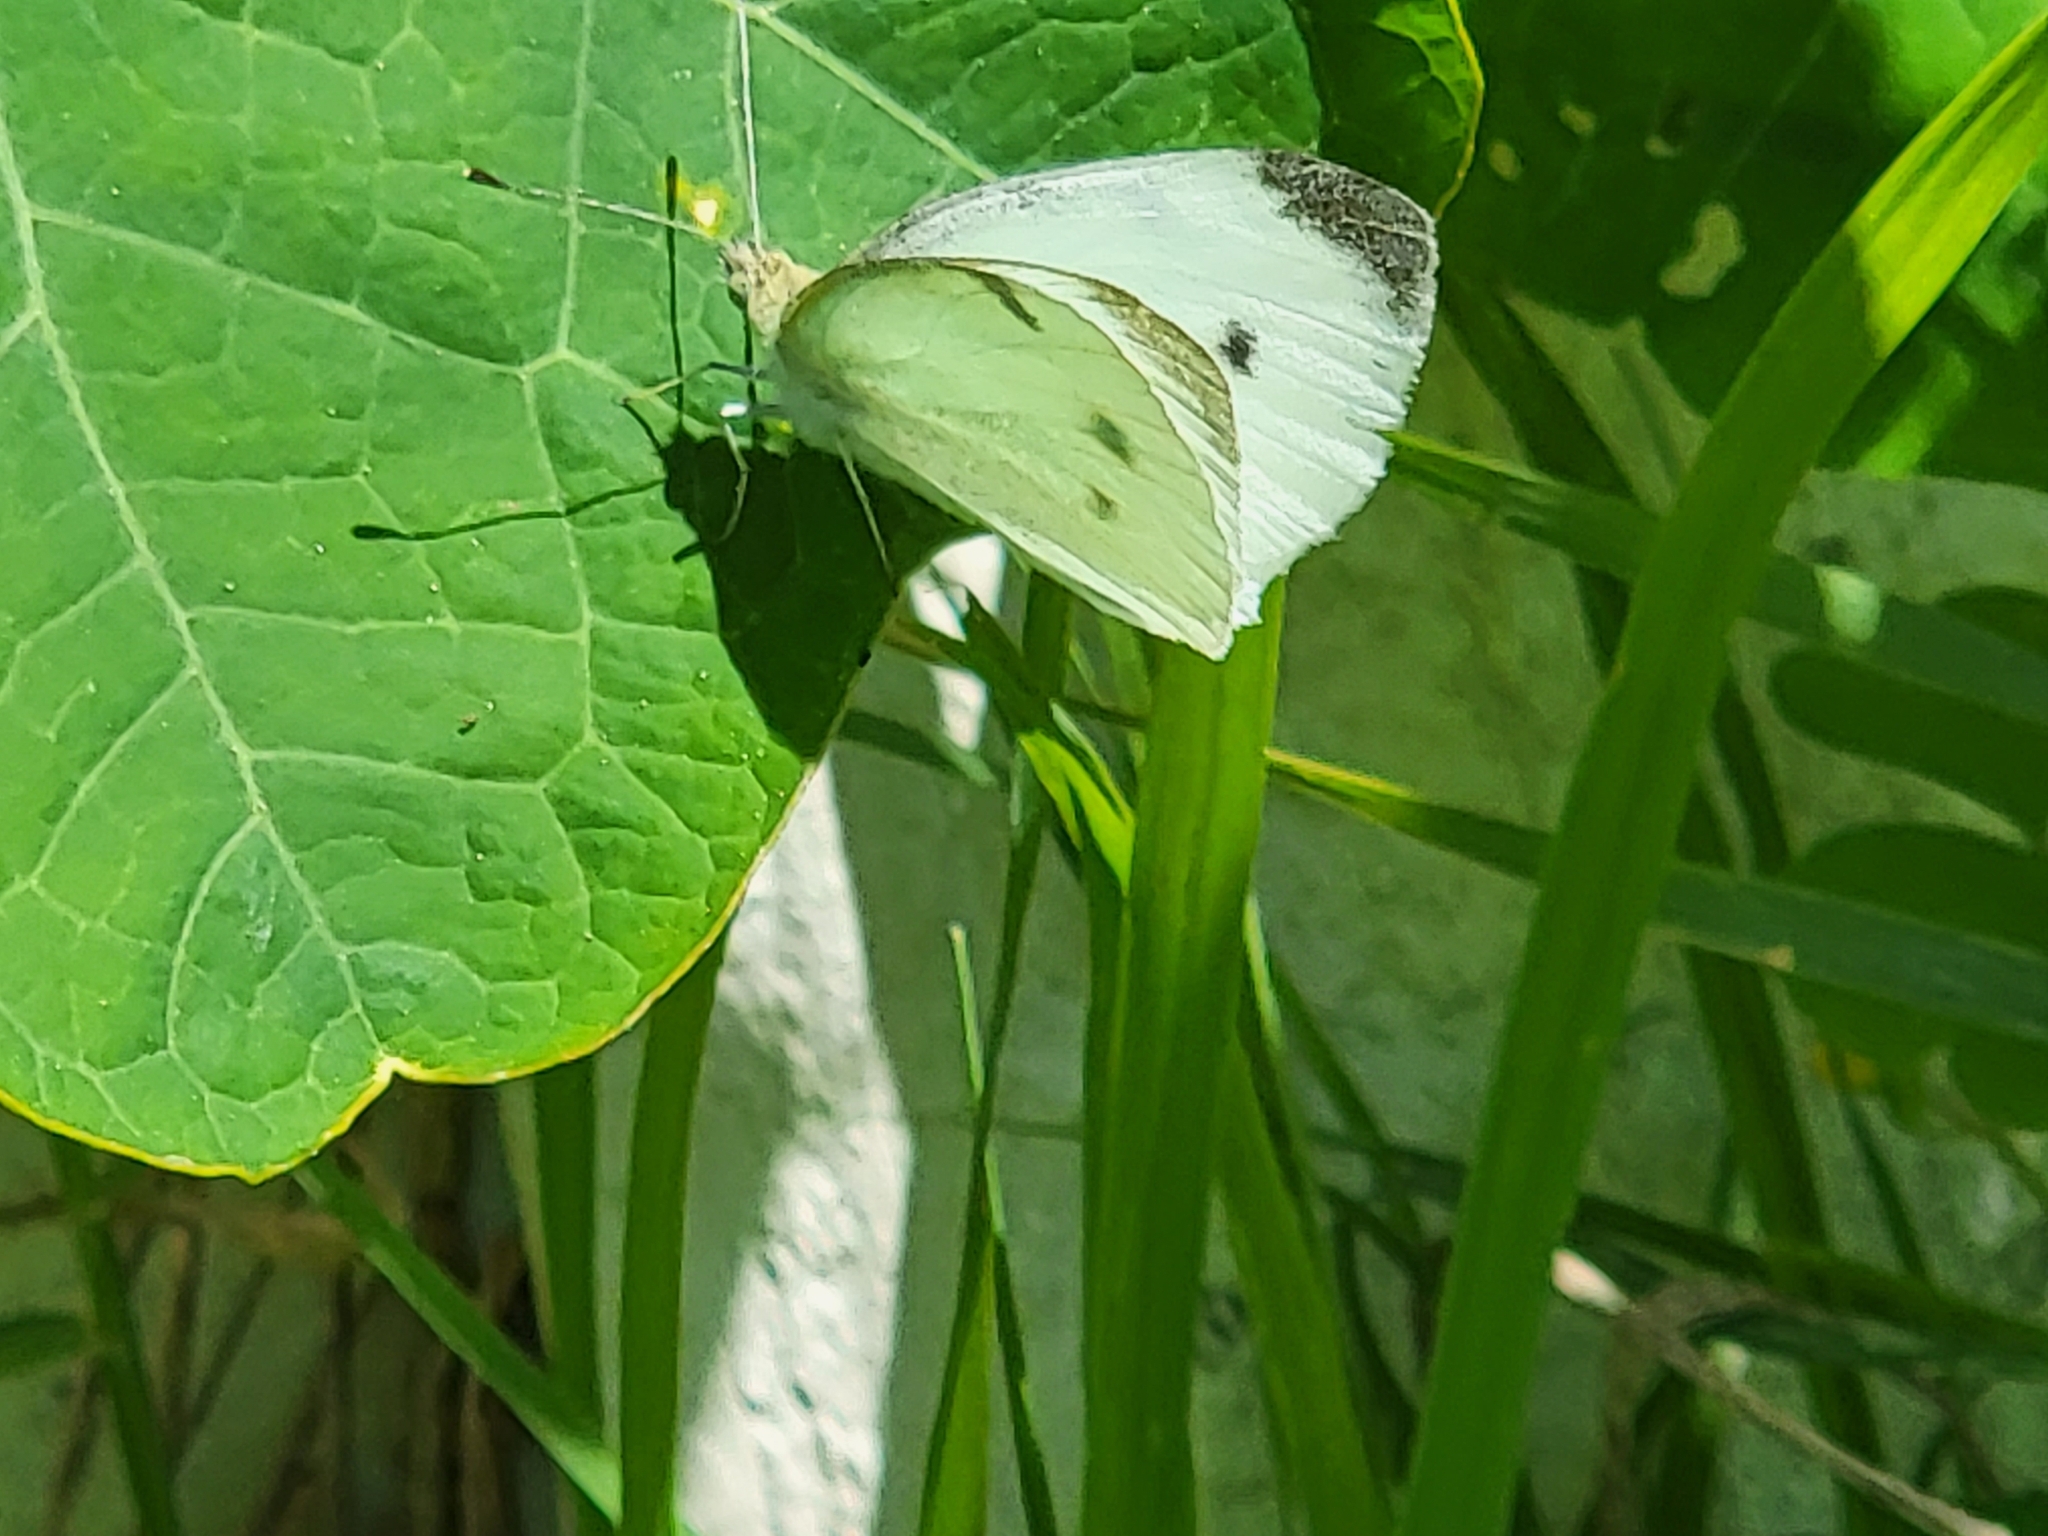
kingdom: Animalia
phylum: Arthropoda
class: Insecta
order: Lepidoptera
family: Pieridae
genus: Pieris
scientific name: Pieris rapae
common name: Small white
